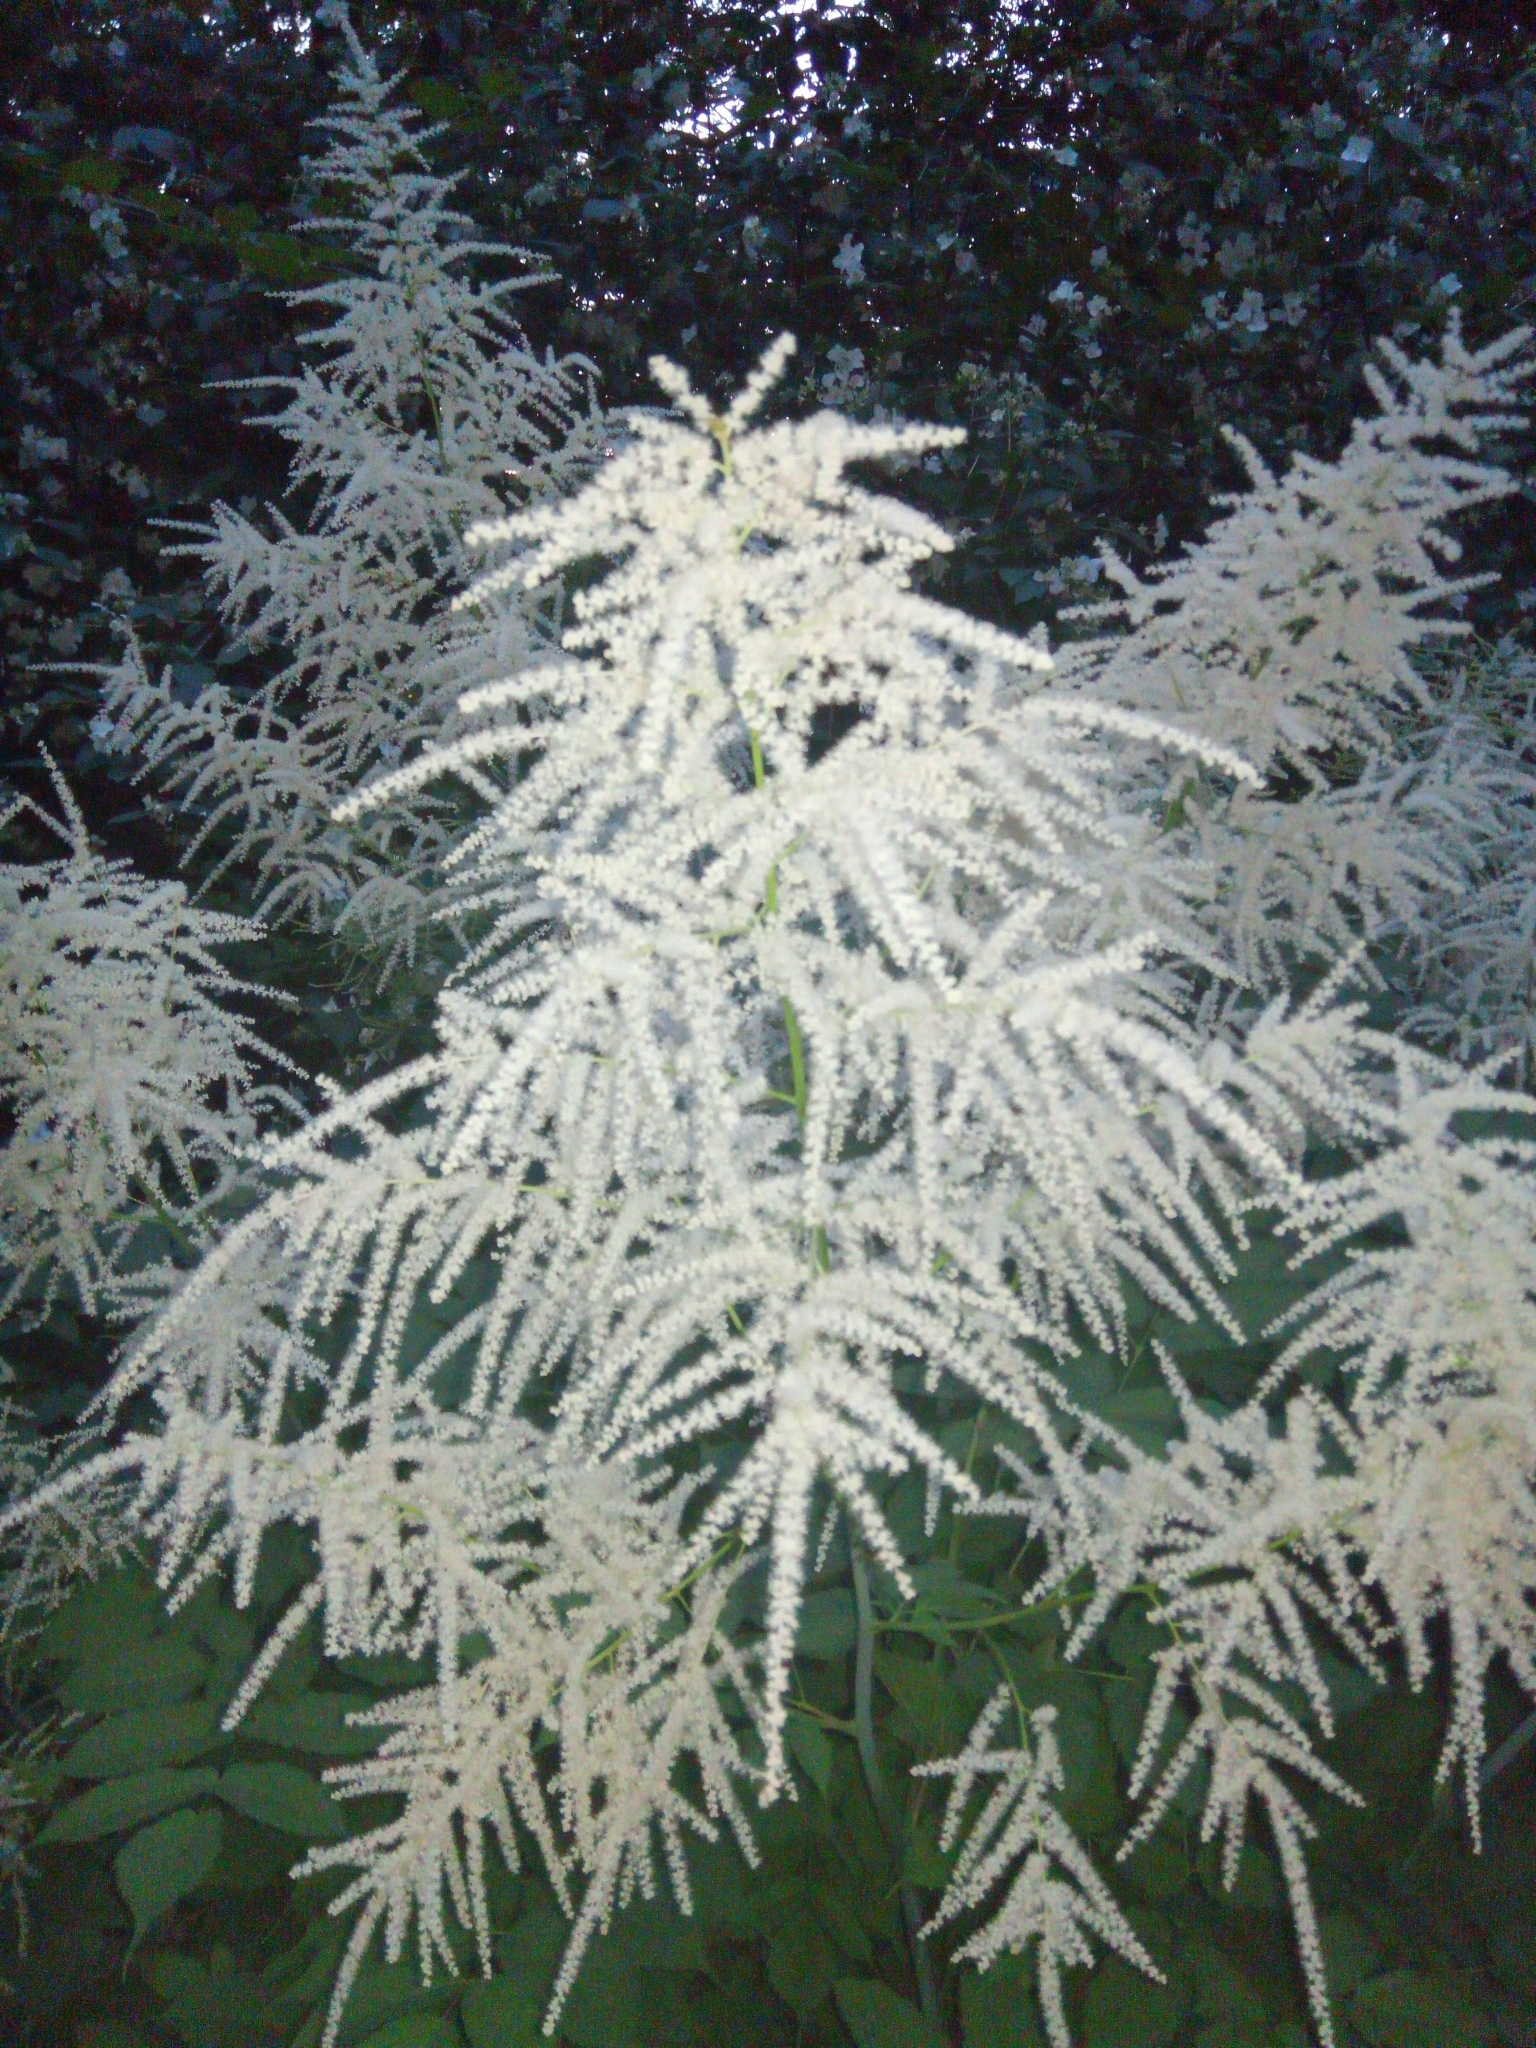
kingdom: Plantae
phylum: Tracheophyta
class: Magnoliopsida
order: Rosales
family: Rosaceae
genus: Aruncus
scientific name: Aruncus dioicus
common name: Buck's-beard
